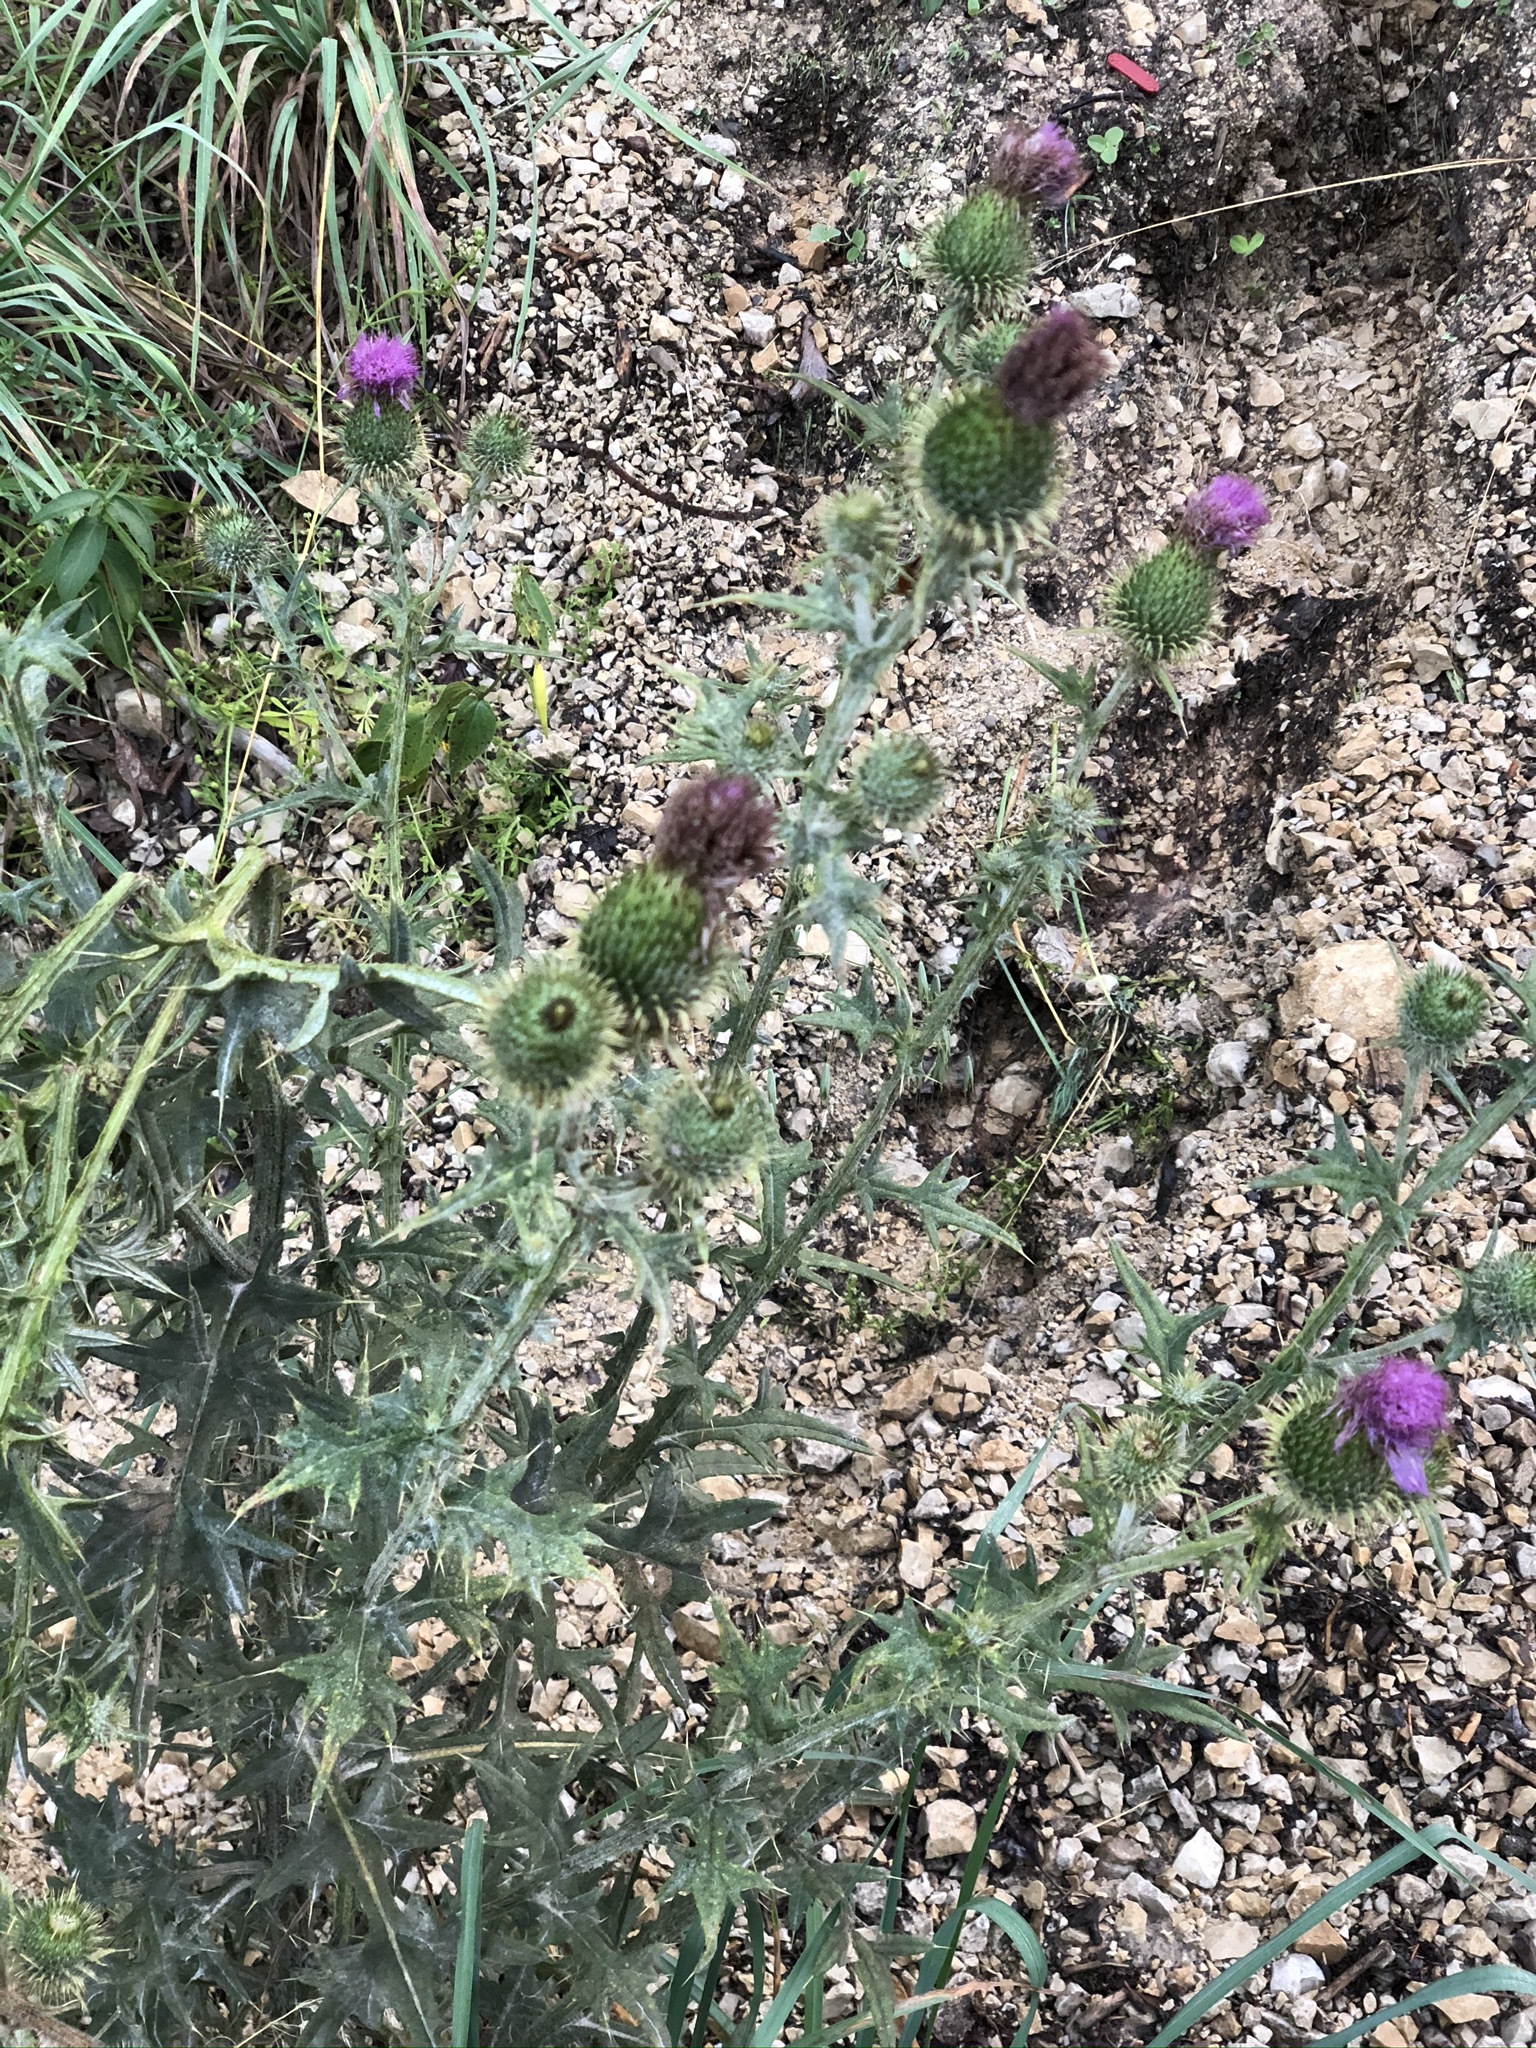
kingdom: Plantae
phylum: Tracheophyta
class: Magnoliopsida
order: Asterales
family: Asteraceae
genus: Cirsium
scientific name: Cirsium vulgare
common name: Bull thistle
